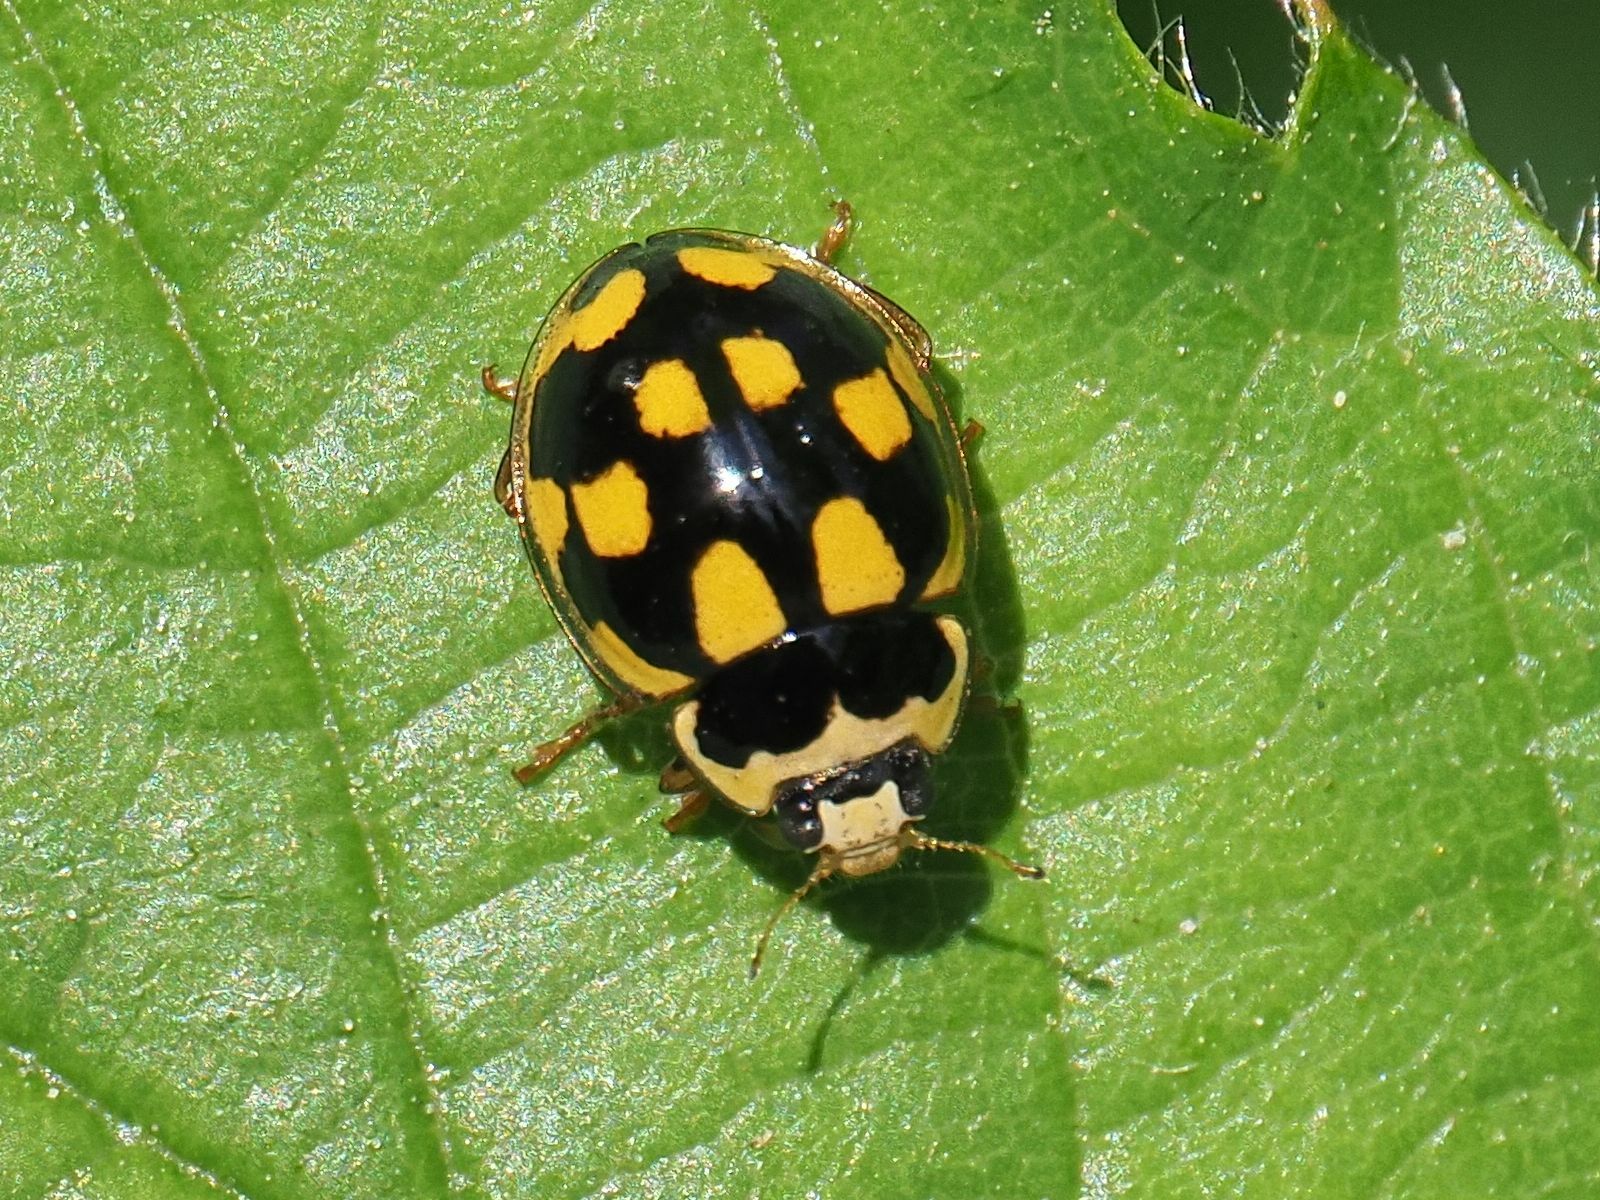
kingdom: Animalia
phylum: Arthropoda
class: Insecta
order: Coleoptera
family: Coccinellidae
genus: Propylaea
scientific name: Propylaea quatuordecimpunctata
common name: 14-spotted ladybird beetle
